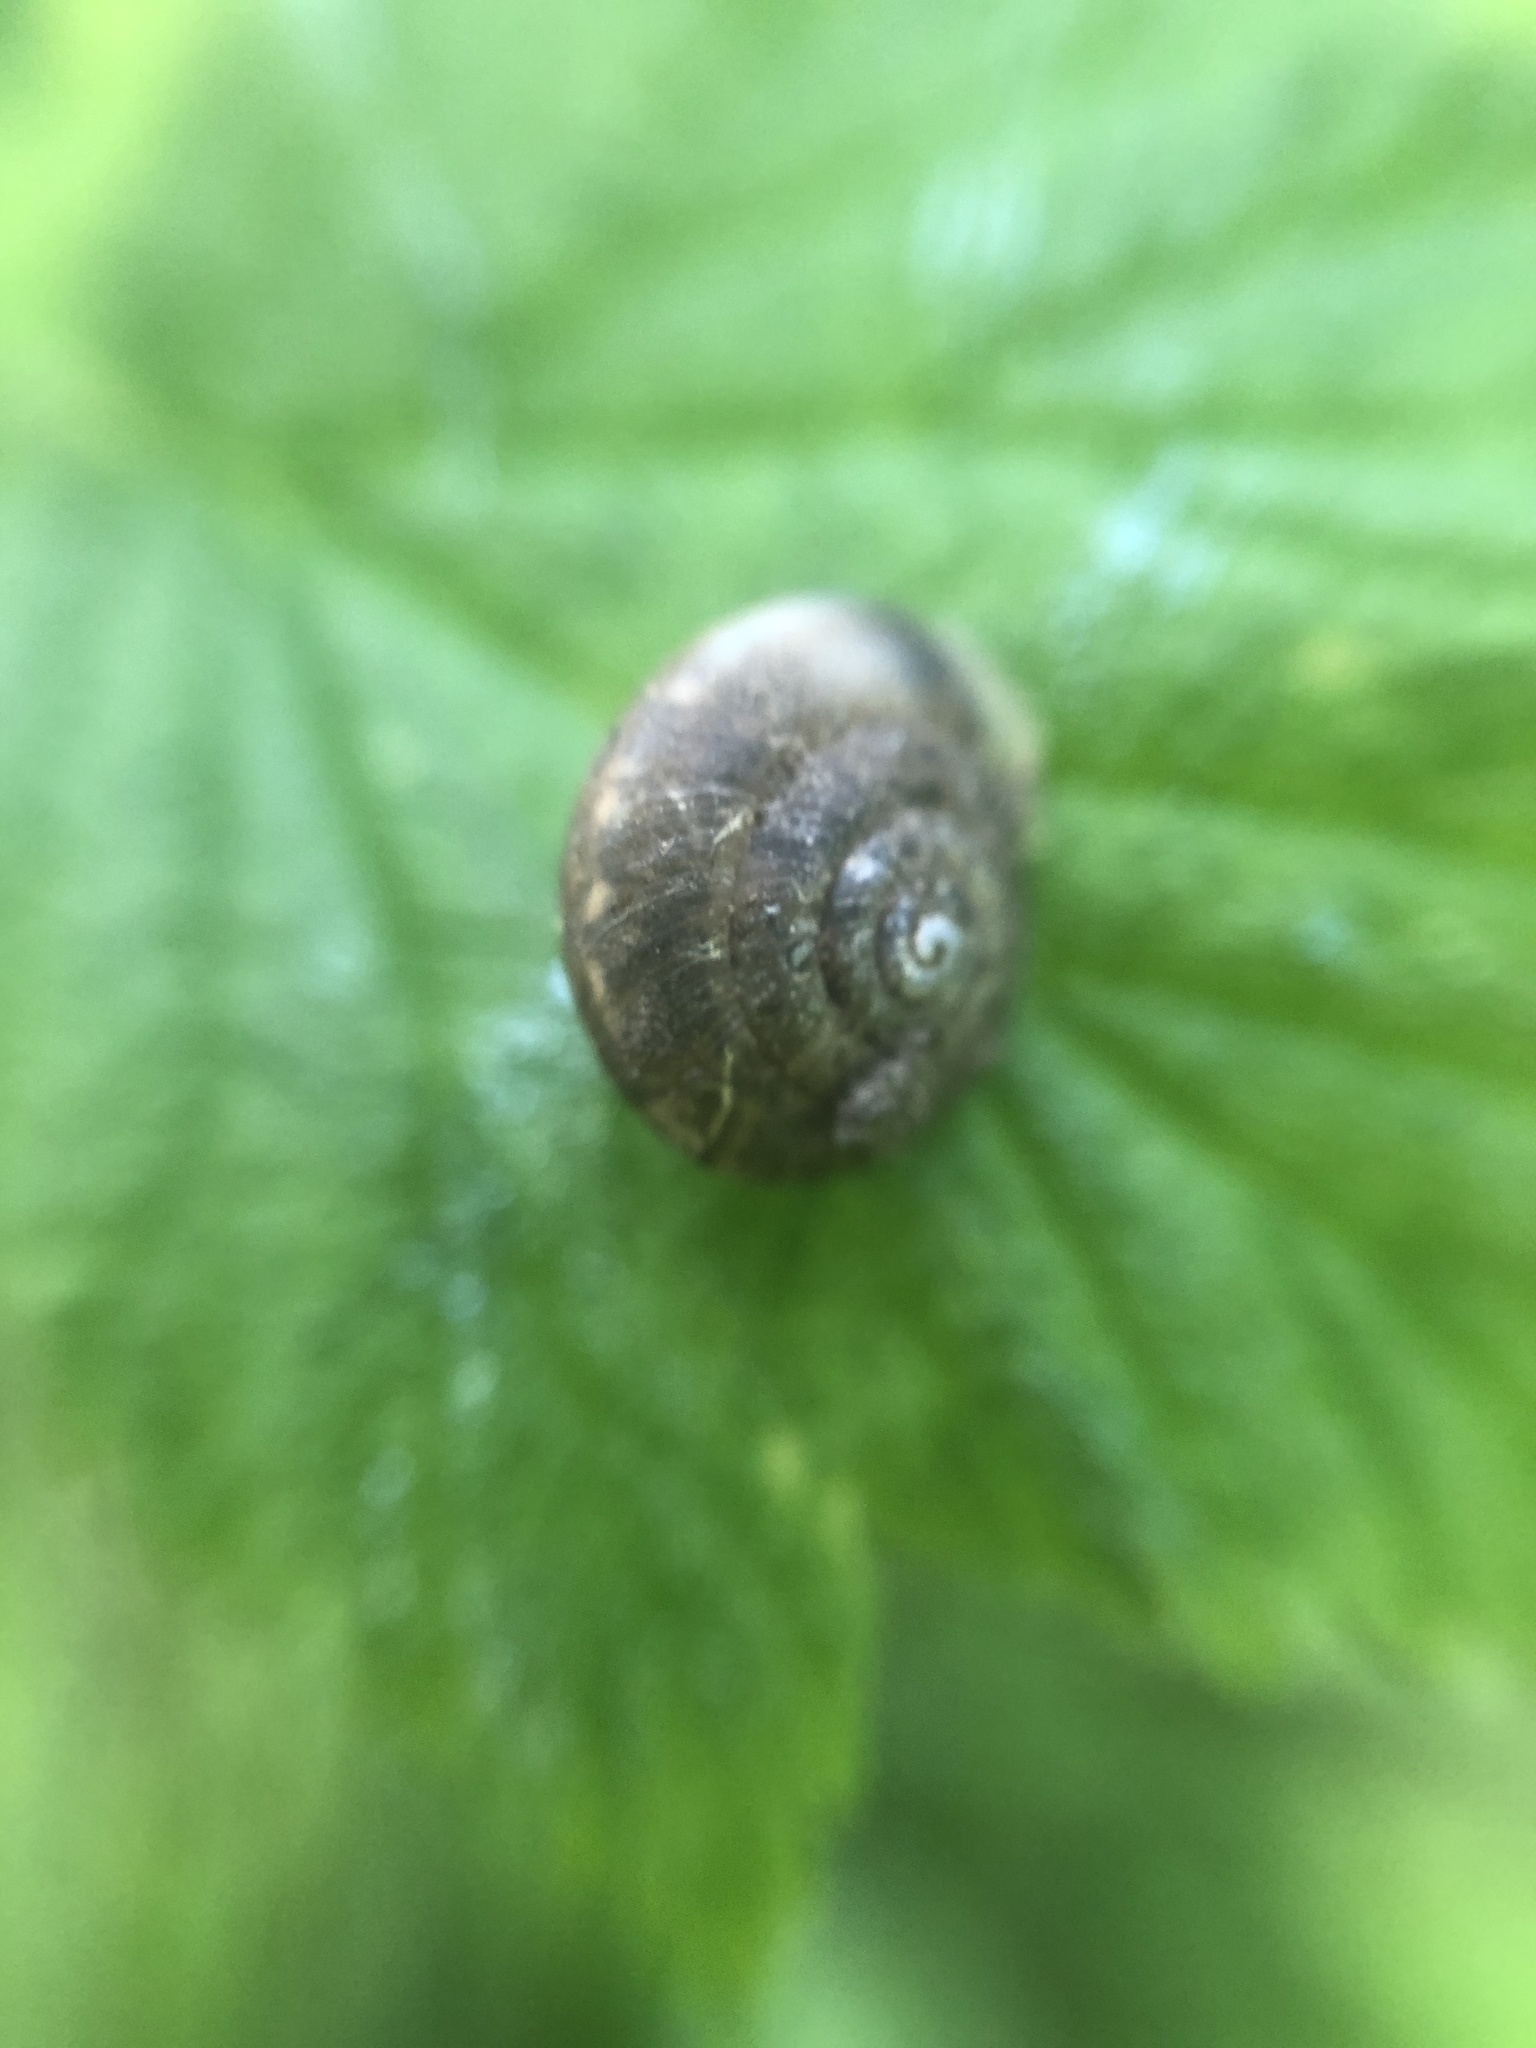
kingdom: Animalia
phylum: Mollusca
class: Gastropoda
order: Stylommatophora
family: Hygromiidae
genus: Hygromia
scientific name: Hygromia cinctella
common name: Girdled snail
